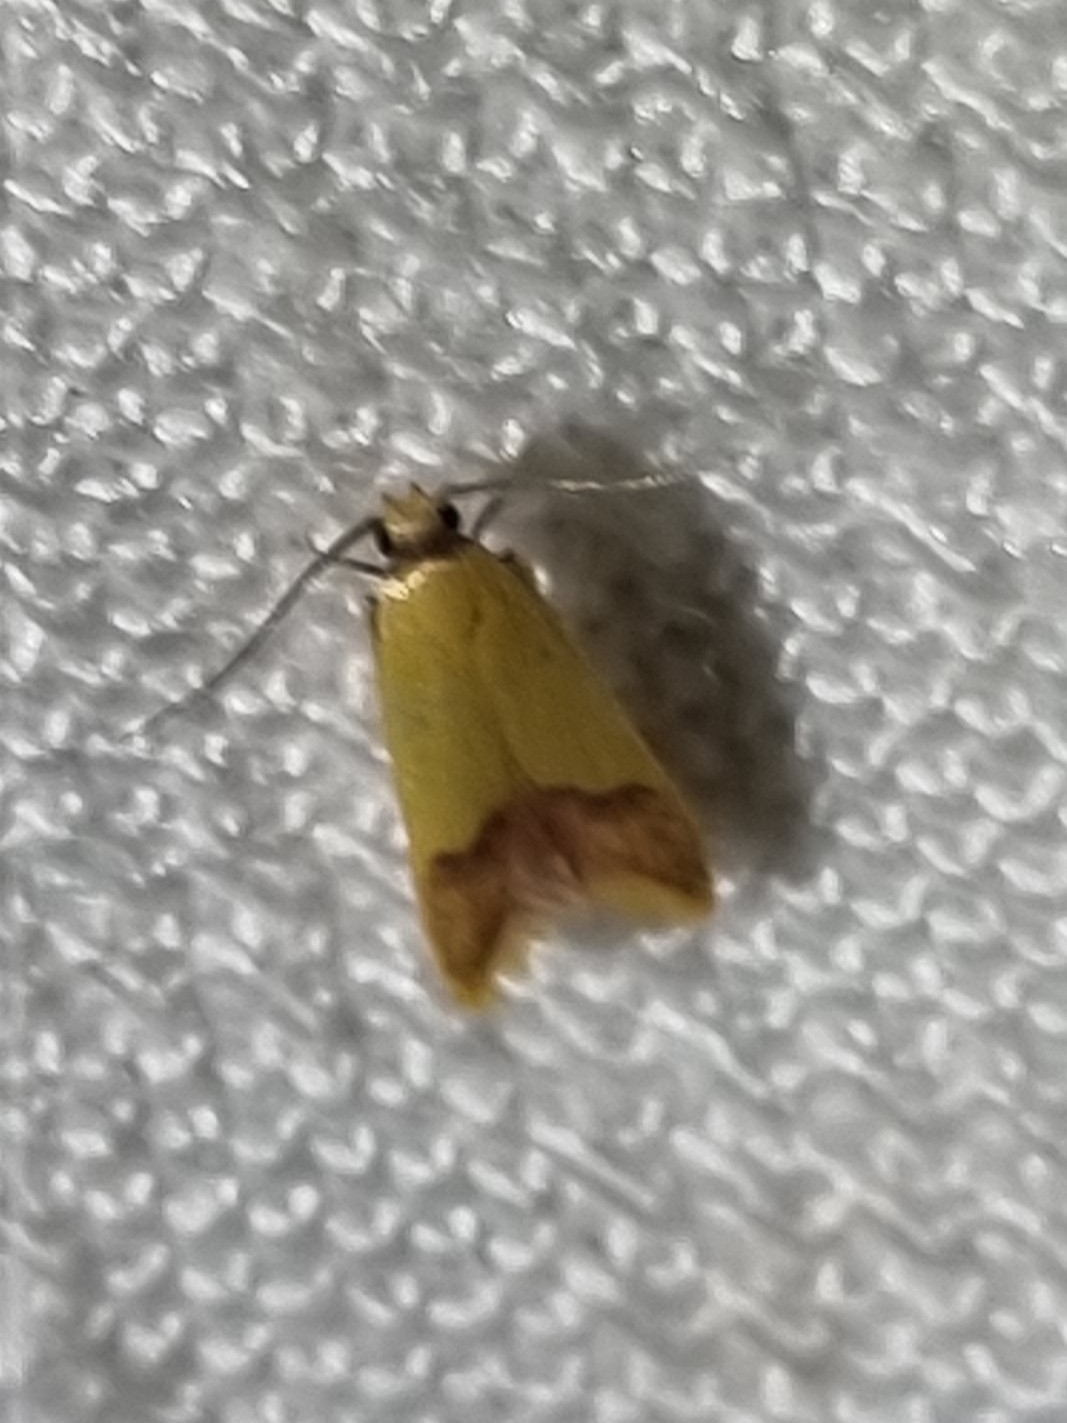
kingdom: Animalia
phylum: Arthropoda
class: Insecta
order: Lepidoptera
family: Oecophoridae
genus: Tachystola
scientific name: Tachystola thiasotis
